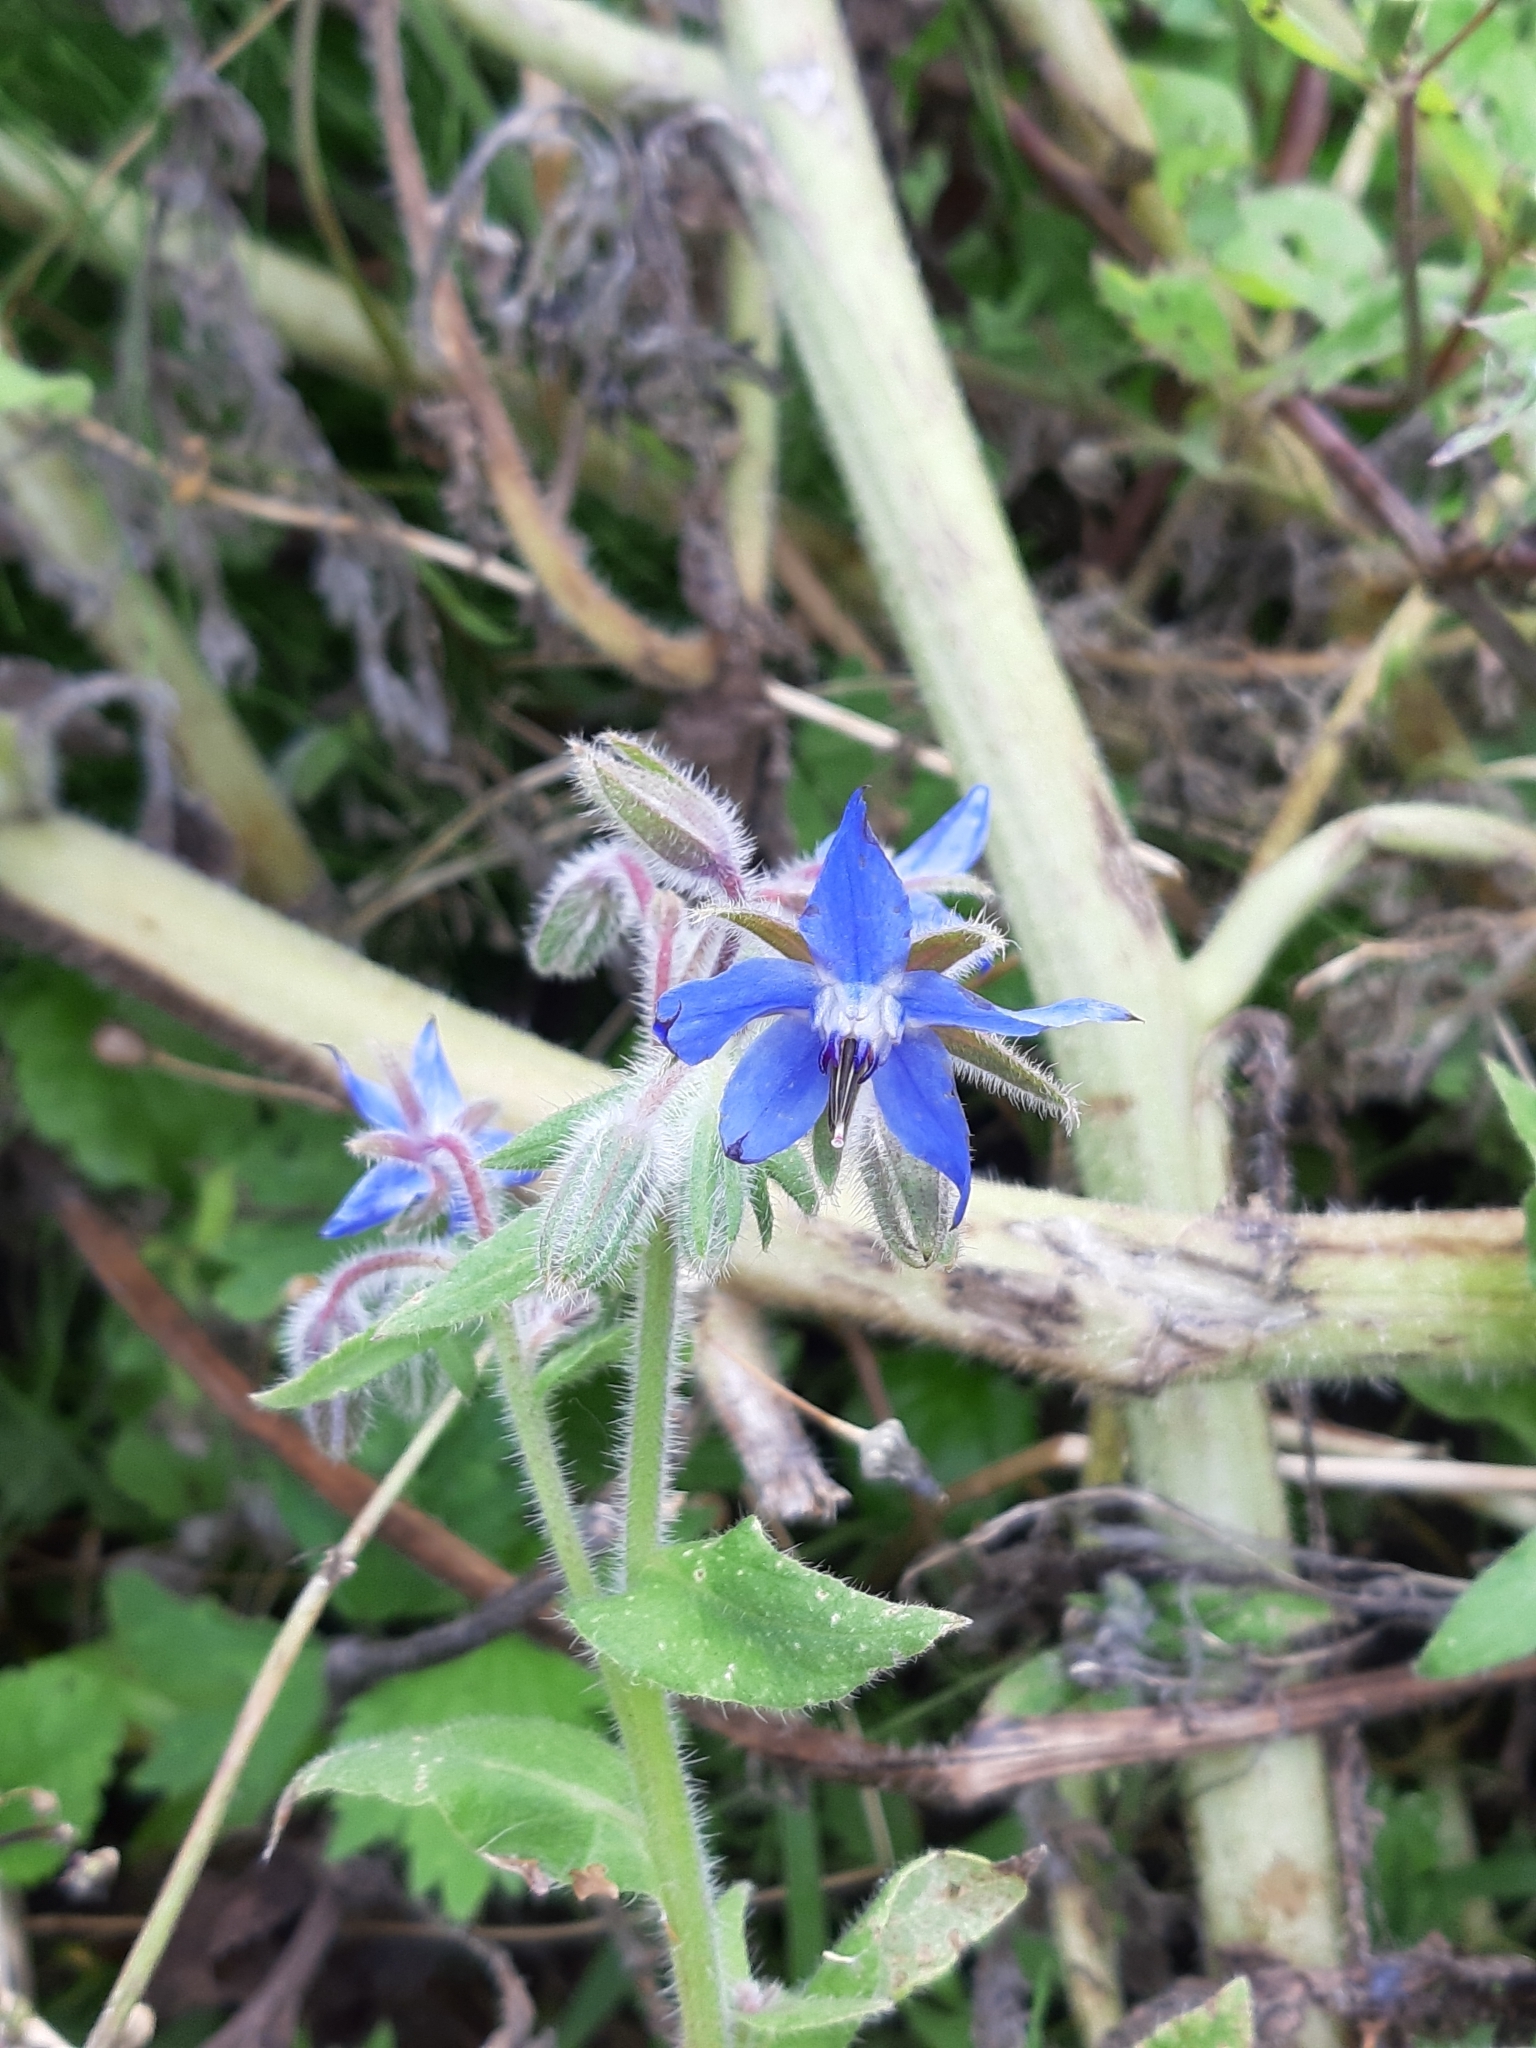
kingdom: Plantae
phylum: Tracheophyta
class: Magnoliopsida
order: Boraginales
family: Boraginaceae
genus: Borago
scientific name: Borago officinalis
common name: Borage
